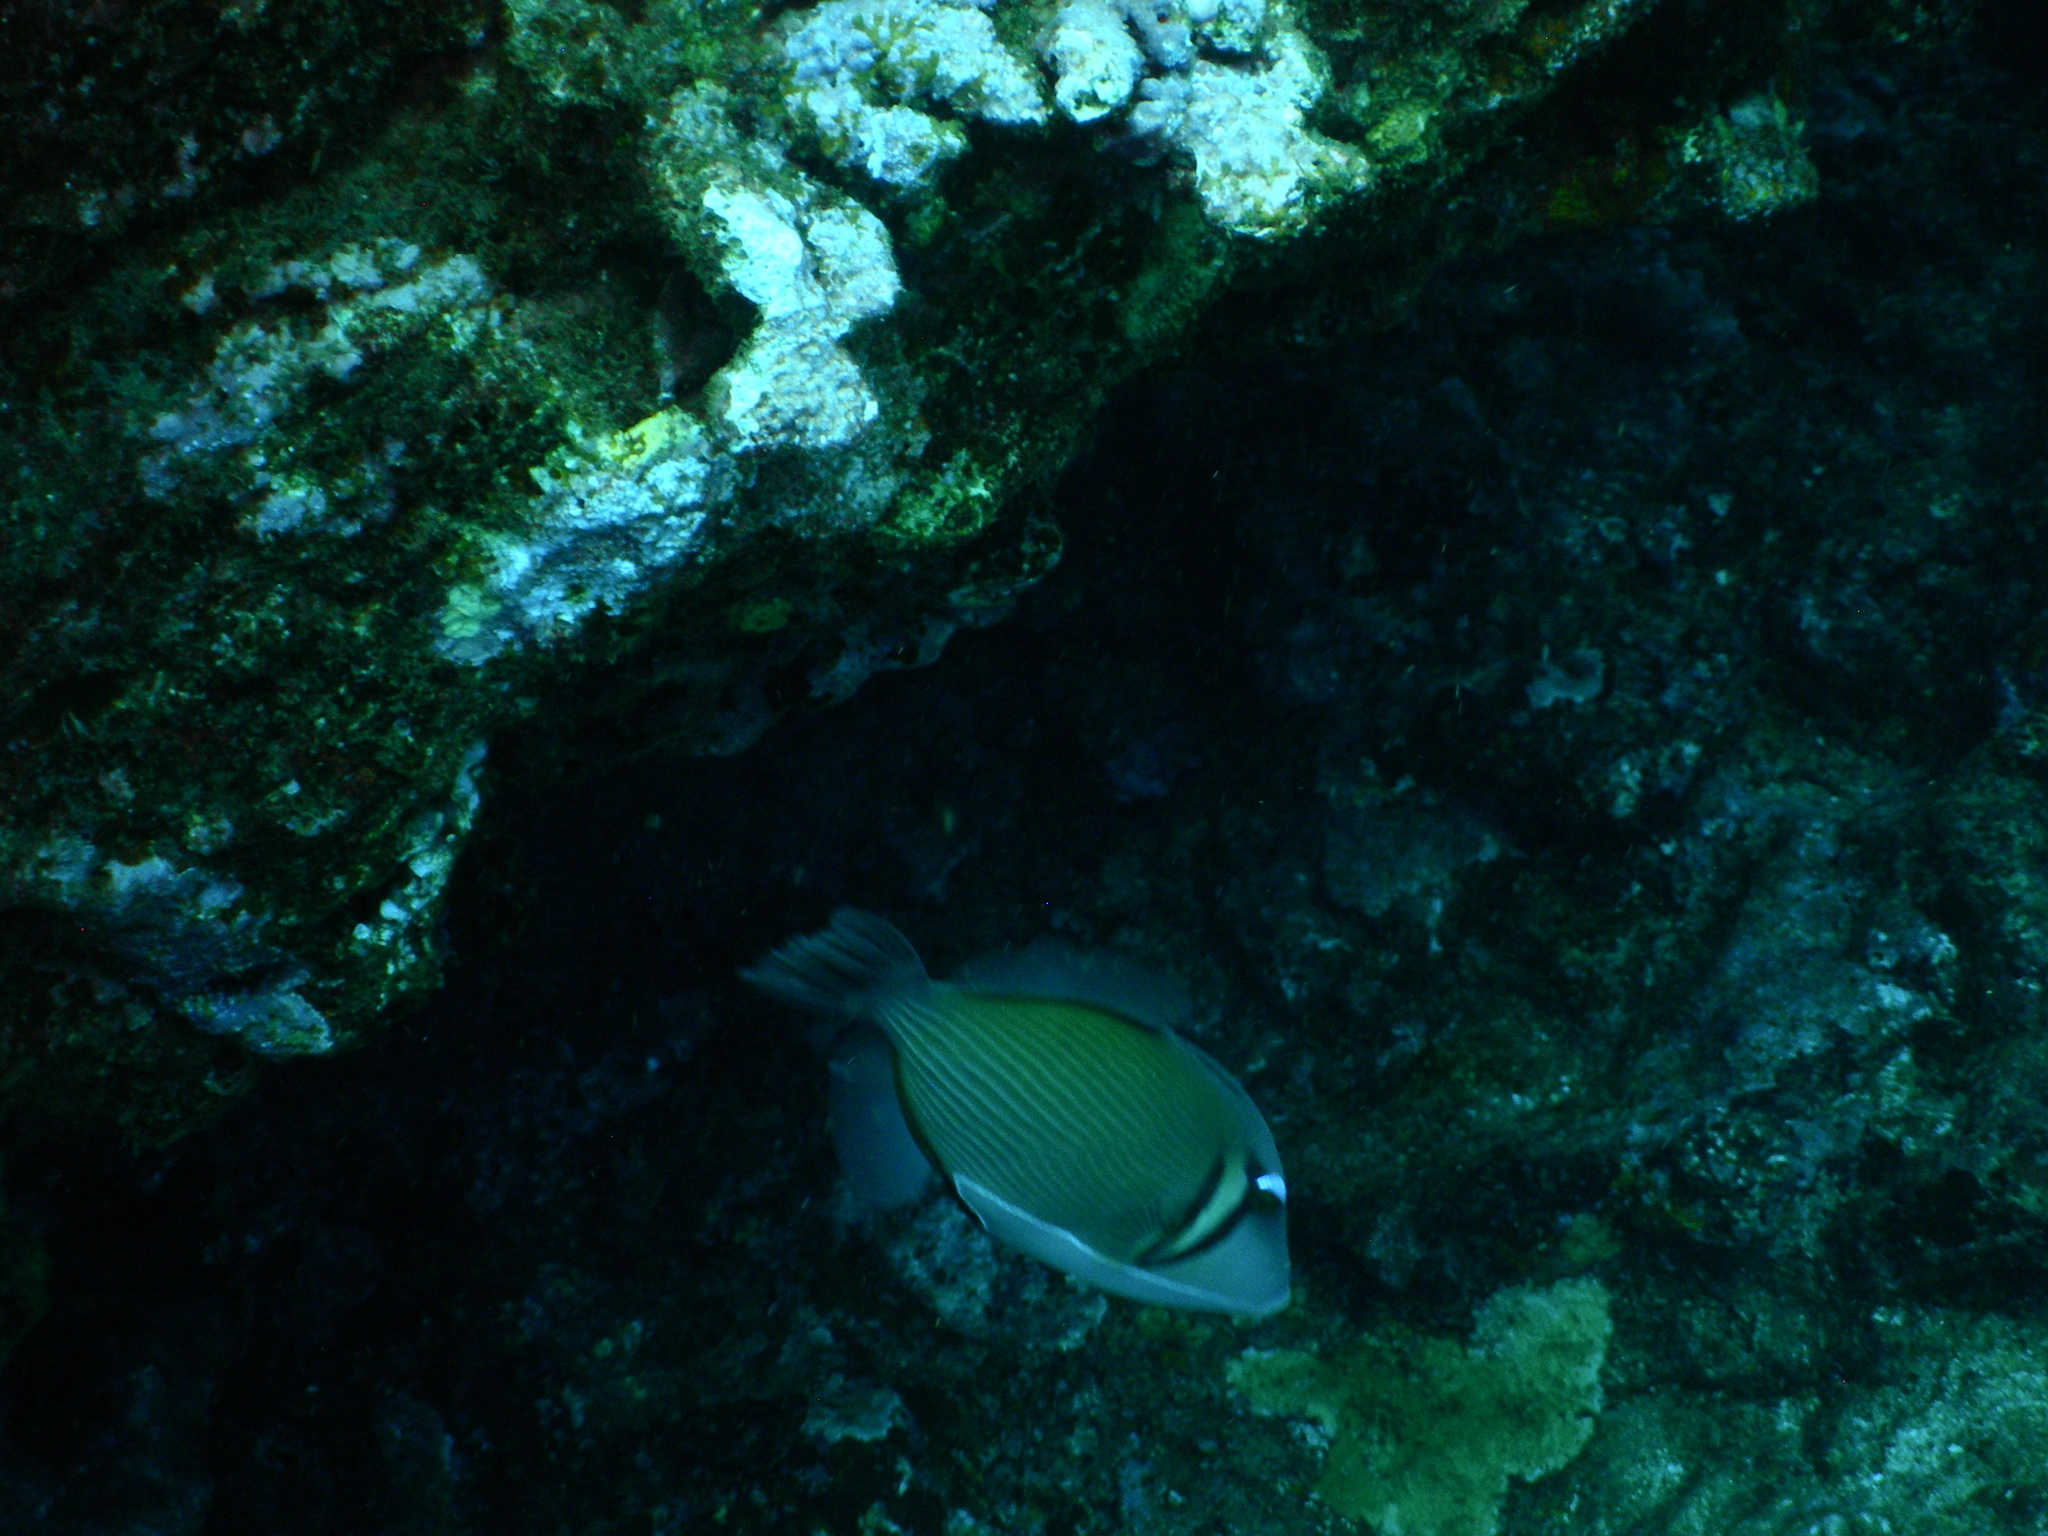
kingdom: Animalia
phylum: Chordata
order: Tetraodontiformes
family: Balistidae
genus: Sufflamen
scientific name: Sufflamen bursa
